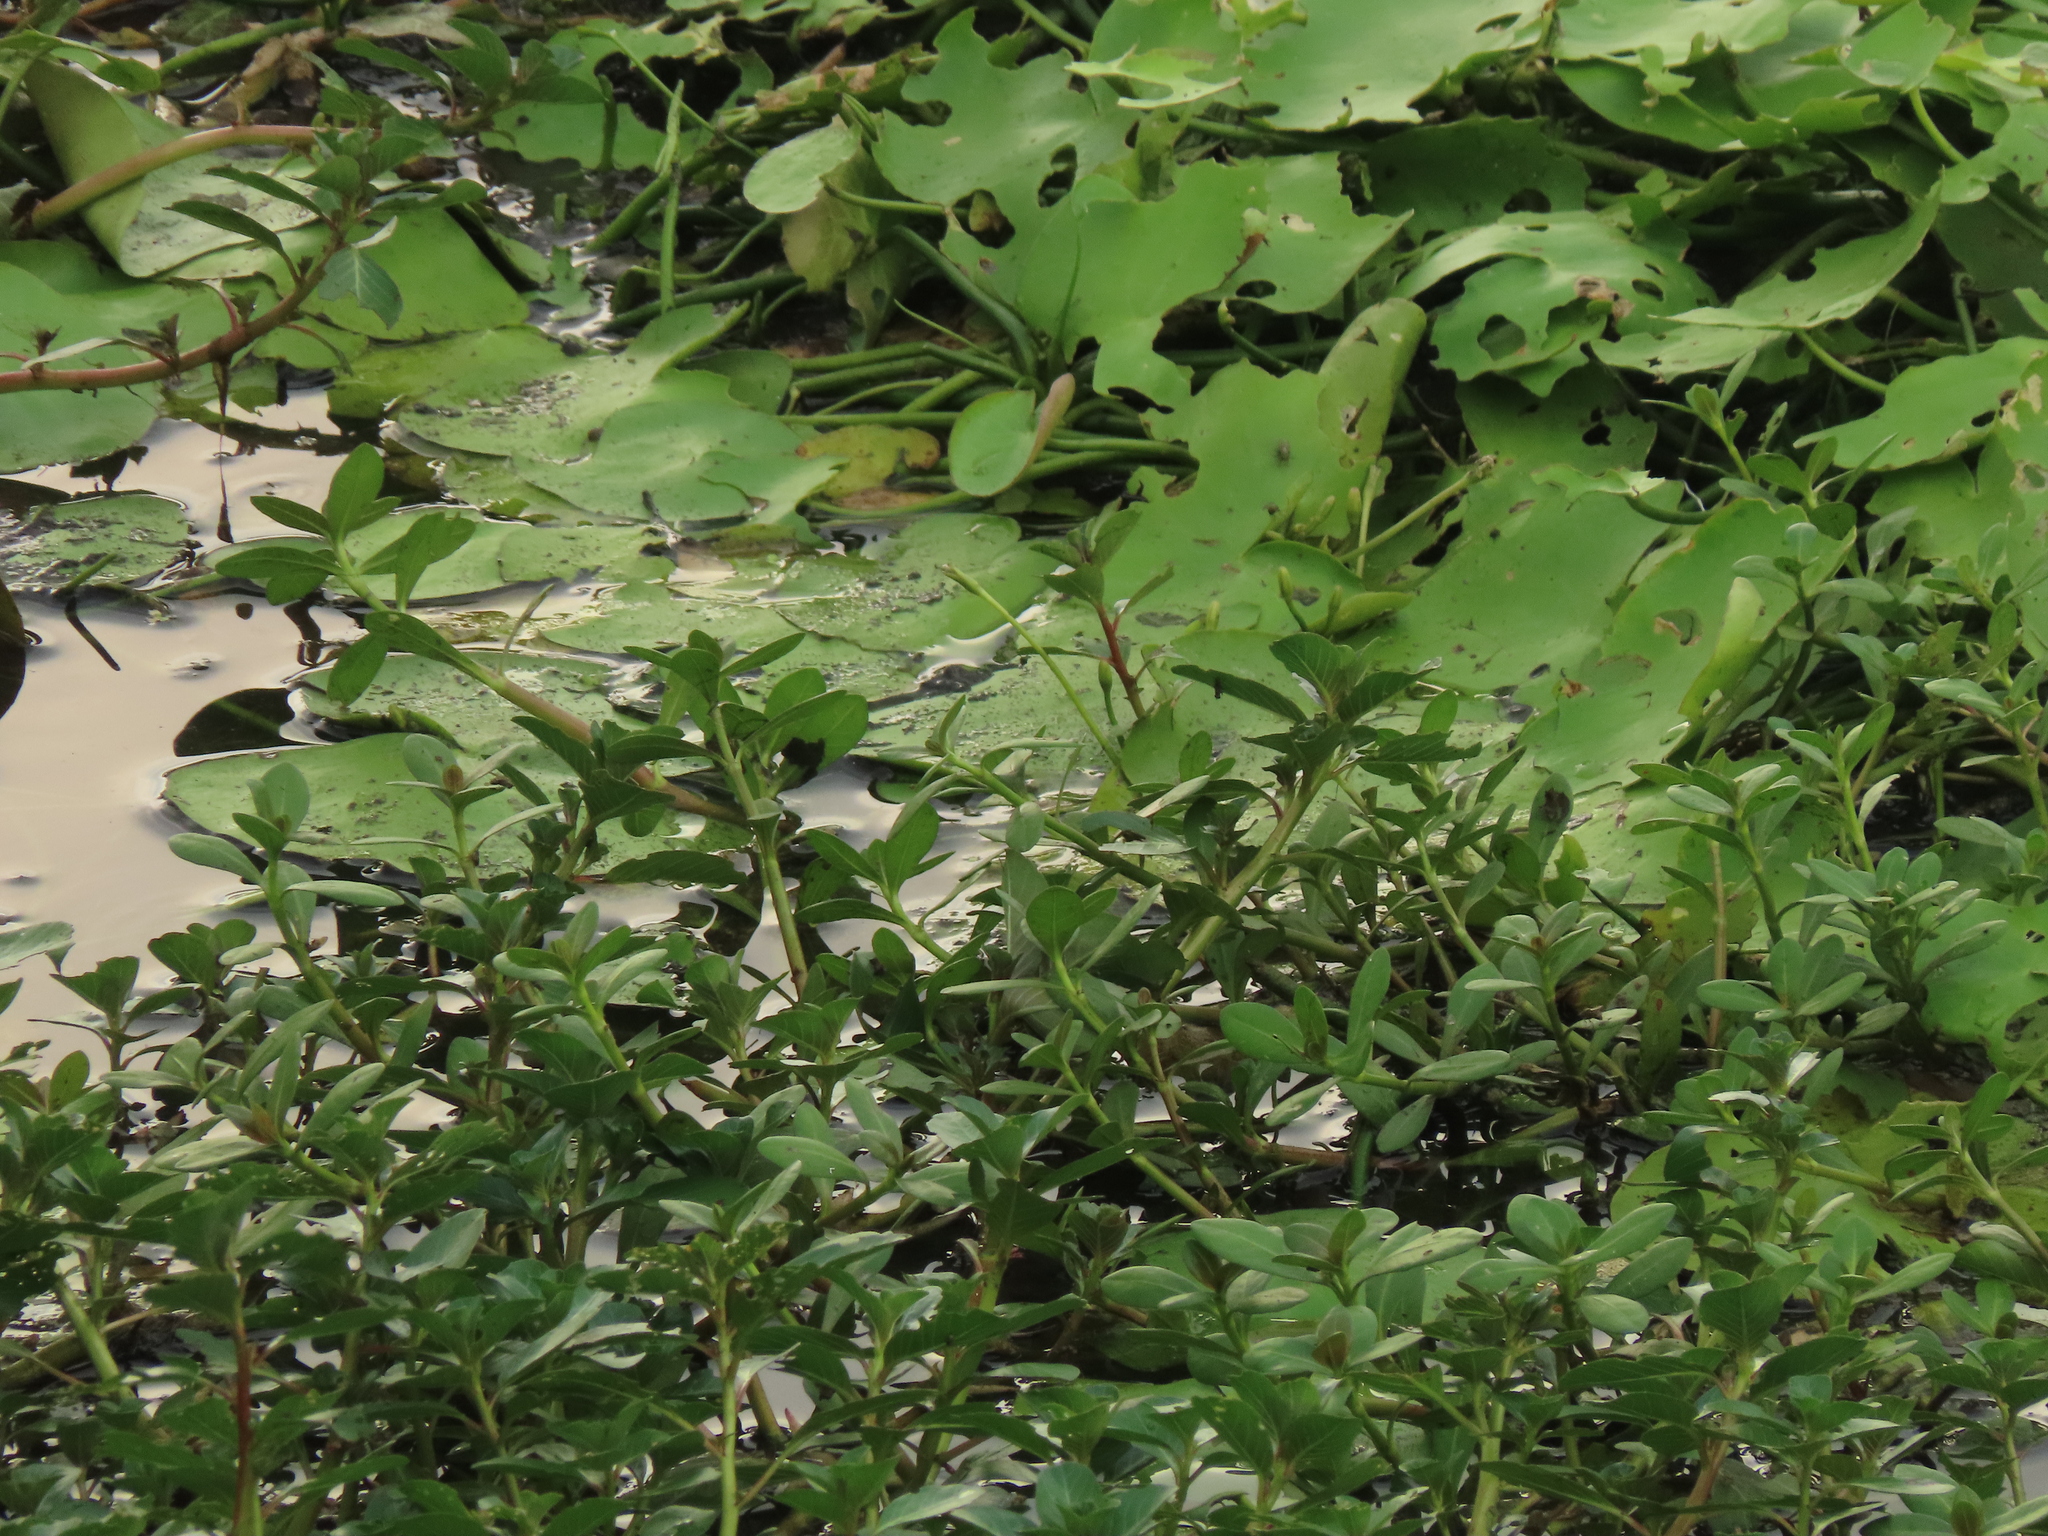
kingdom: Plantae
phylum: Tracheophyta
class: Magnoliopsida
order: Myrtales
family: Onagraceae
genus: Ludwigia
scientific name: Ludwigia adscendens
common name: Creeping water primrose
